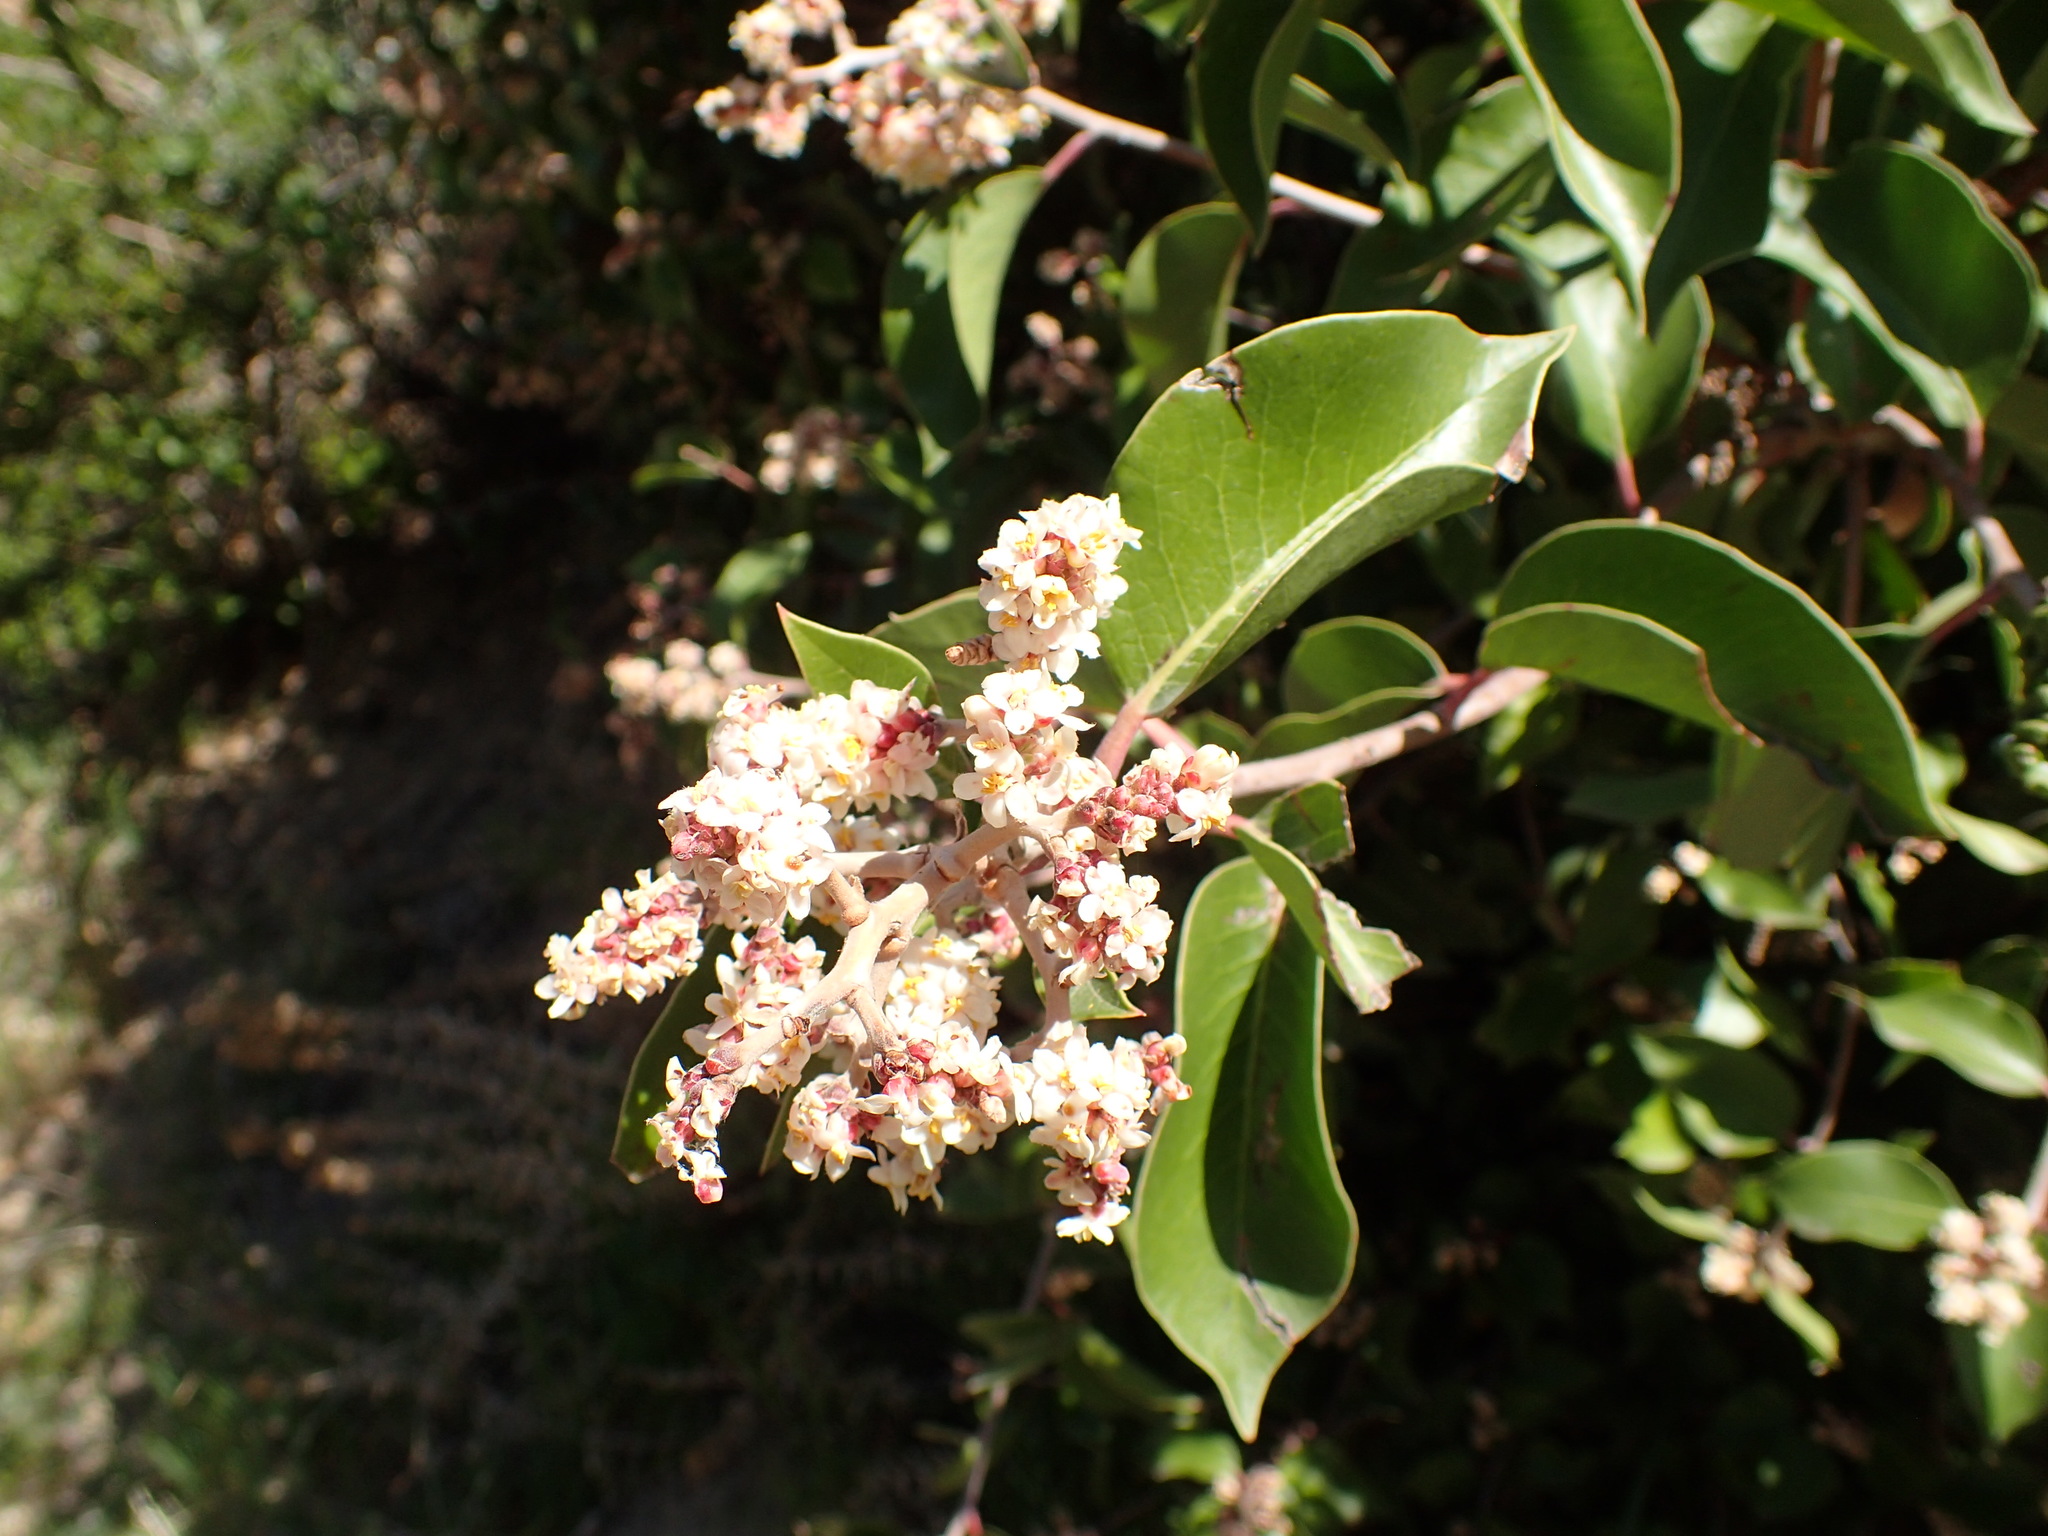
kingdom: Plantae
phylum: Tracheophyta
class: Magnoliopsida
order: Sapindales
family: Anacardiaceae
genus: Rhus
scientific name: Rhus ovata
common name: Sugar sumac
